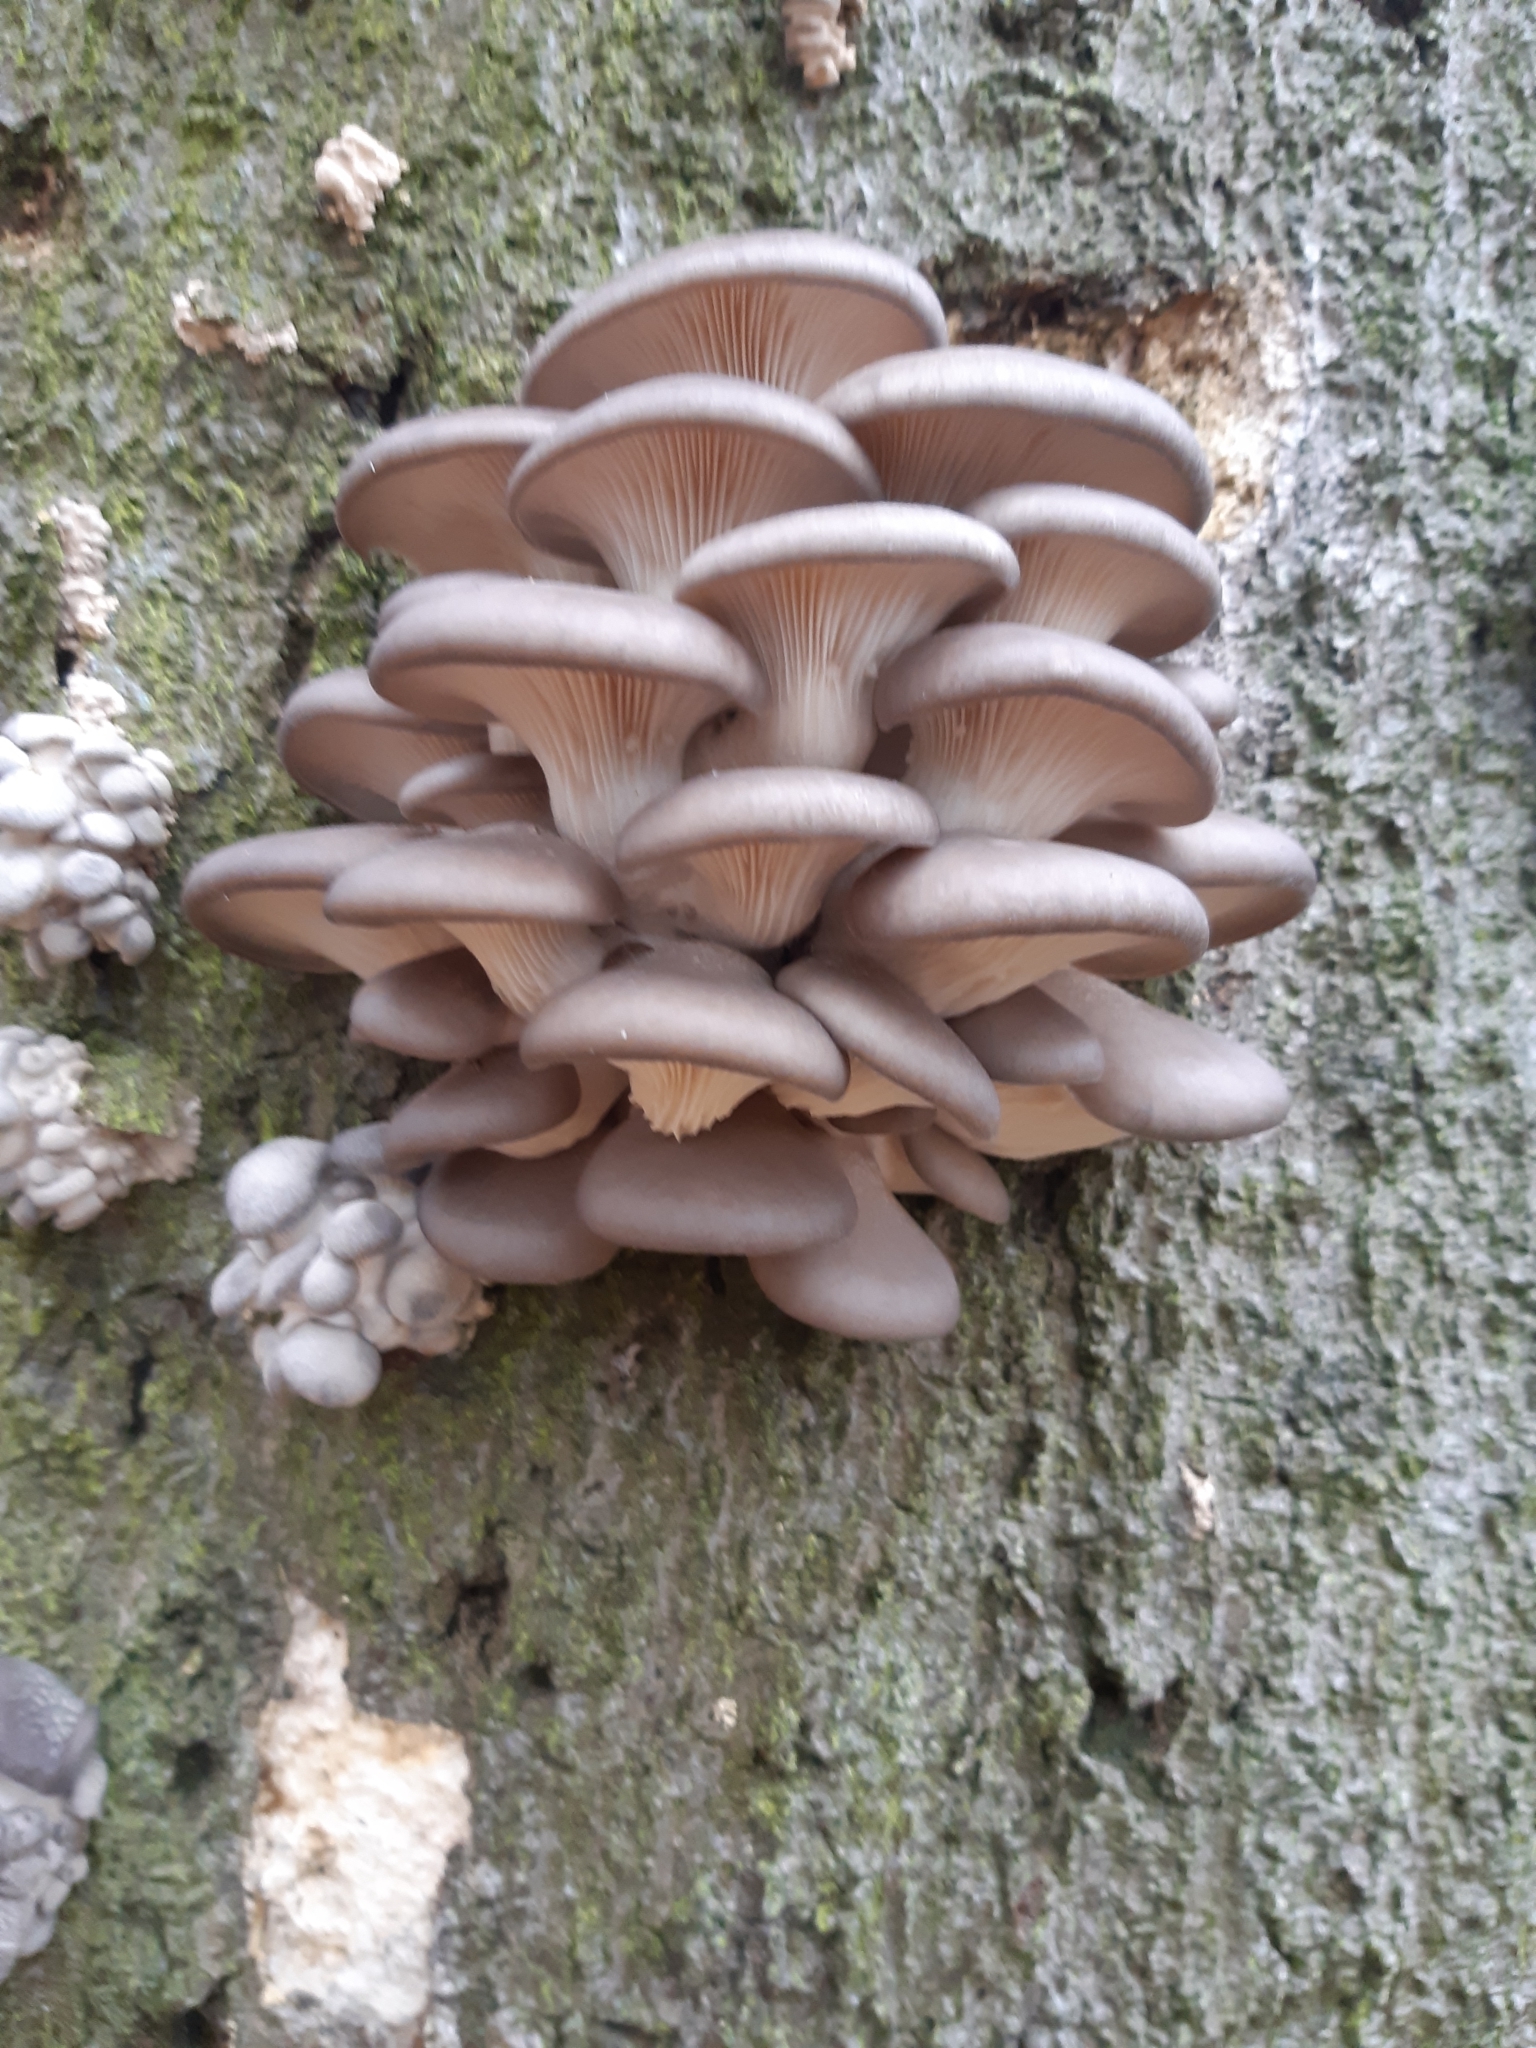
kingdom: Fungi
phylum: Basidiomycota
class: Agaricomycetes
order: Agaricales
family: Pleurotaceae
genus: Pleurotus
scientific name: Pleurotus ostreatus
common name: Oyster mushroom
